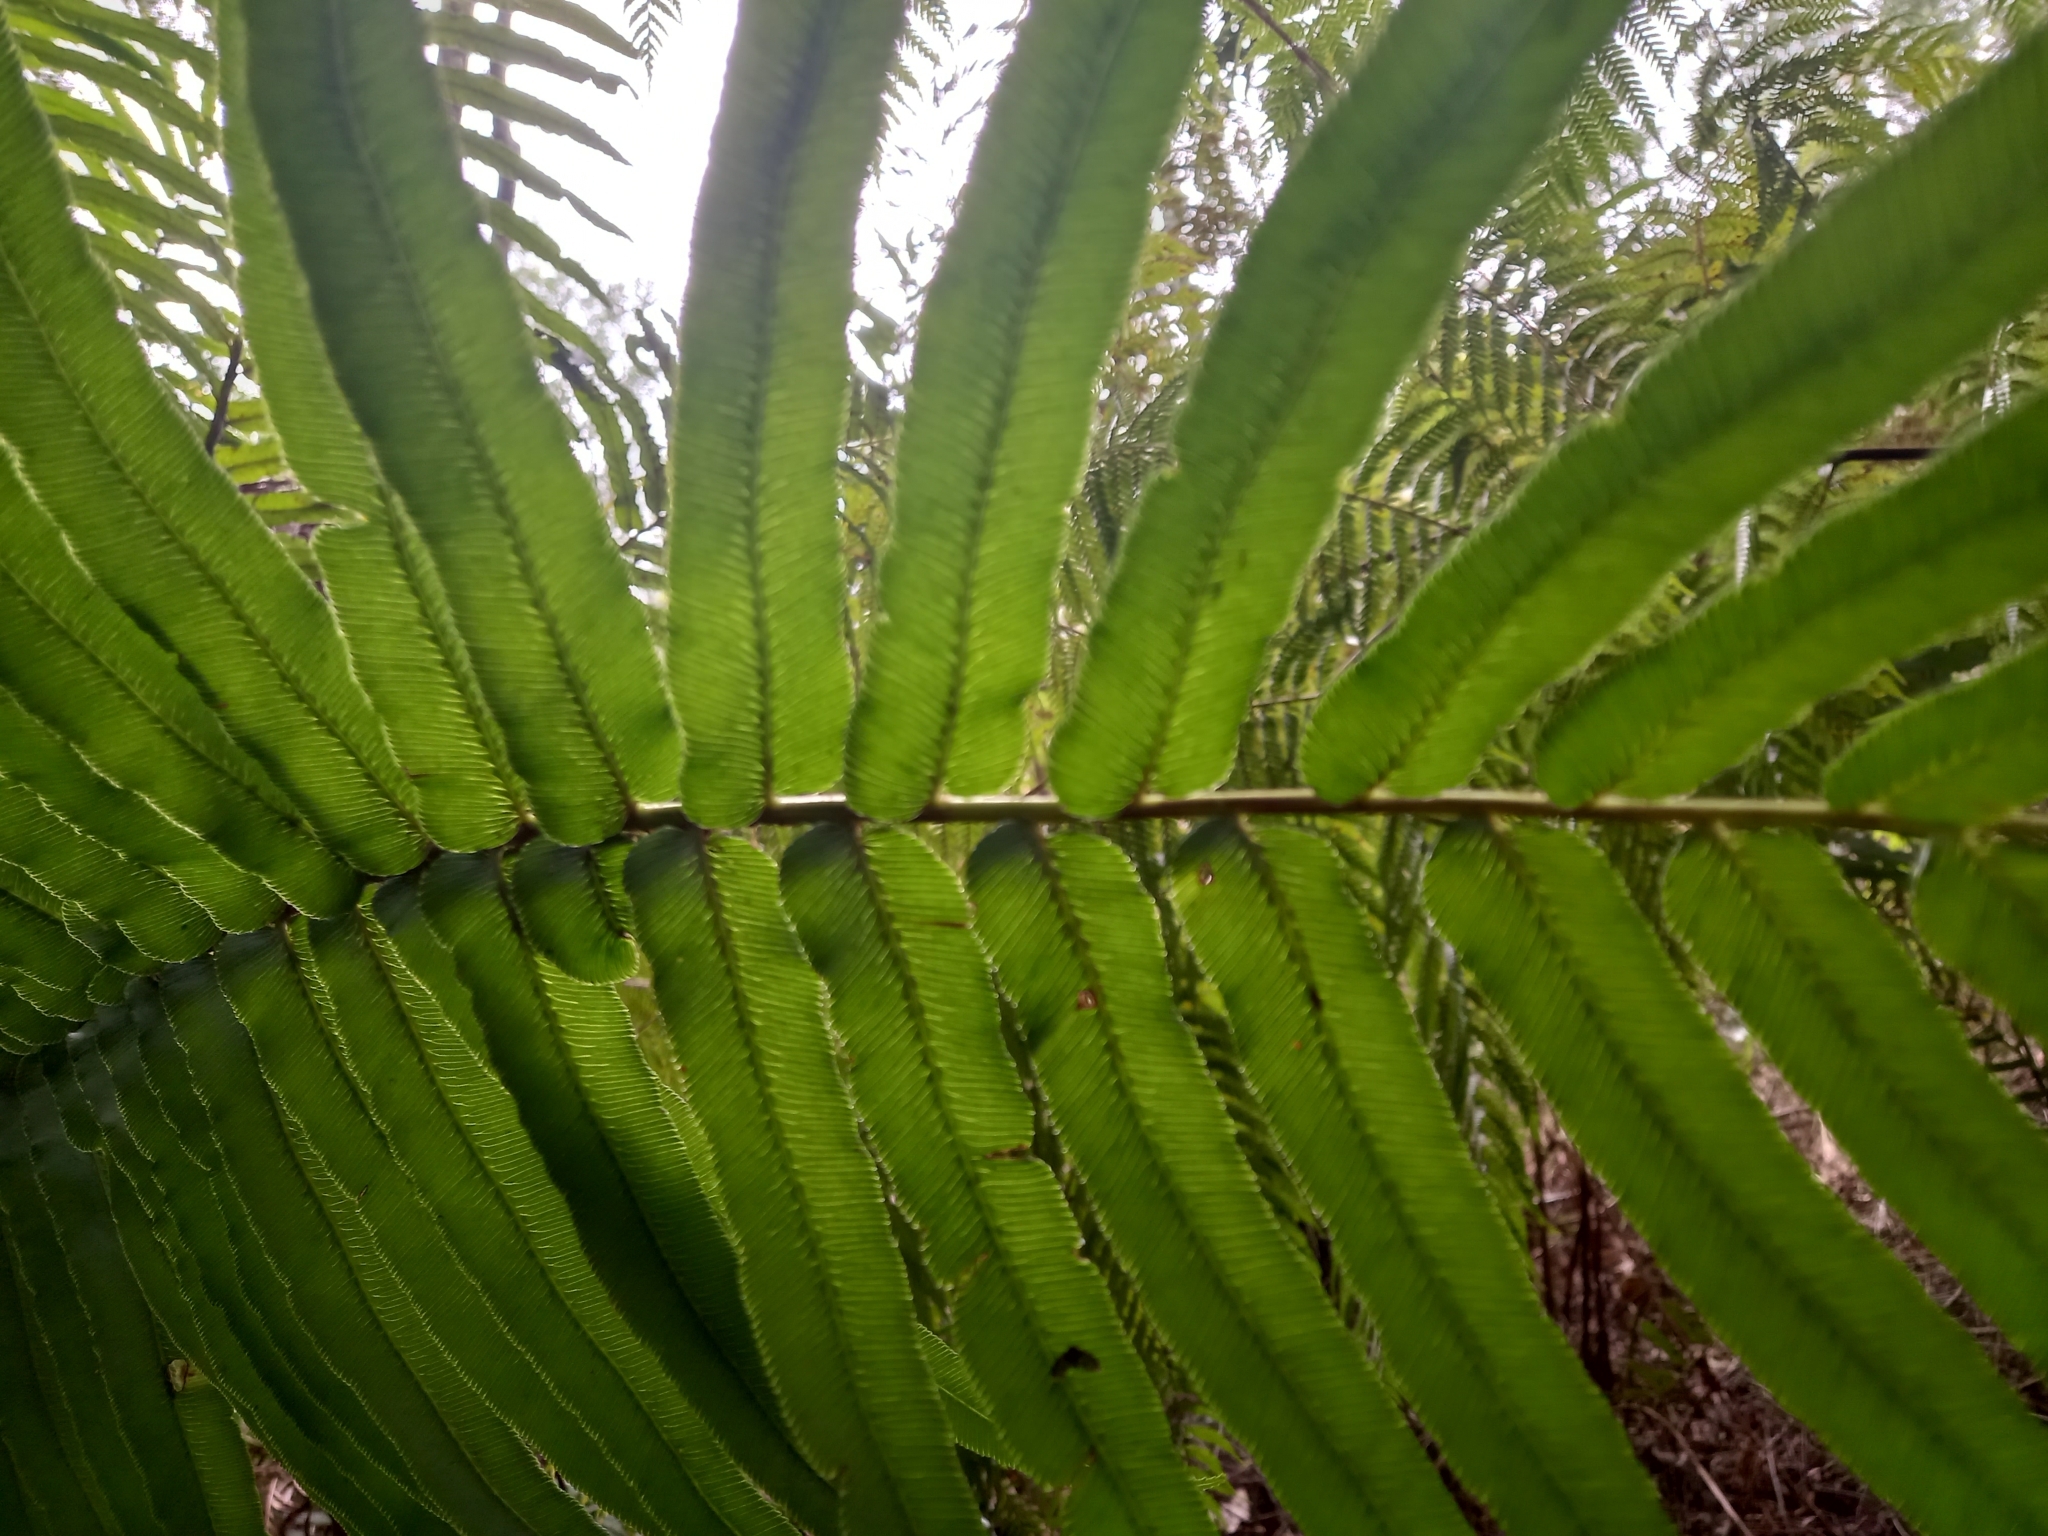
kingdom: Plantae
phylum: Tracheophyta
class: Polypodiopsida
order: Polypodiales
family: Blechnaceae
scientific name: Blechnaceae
